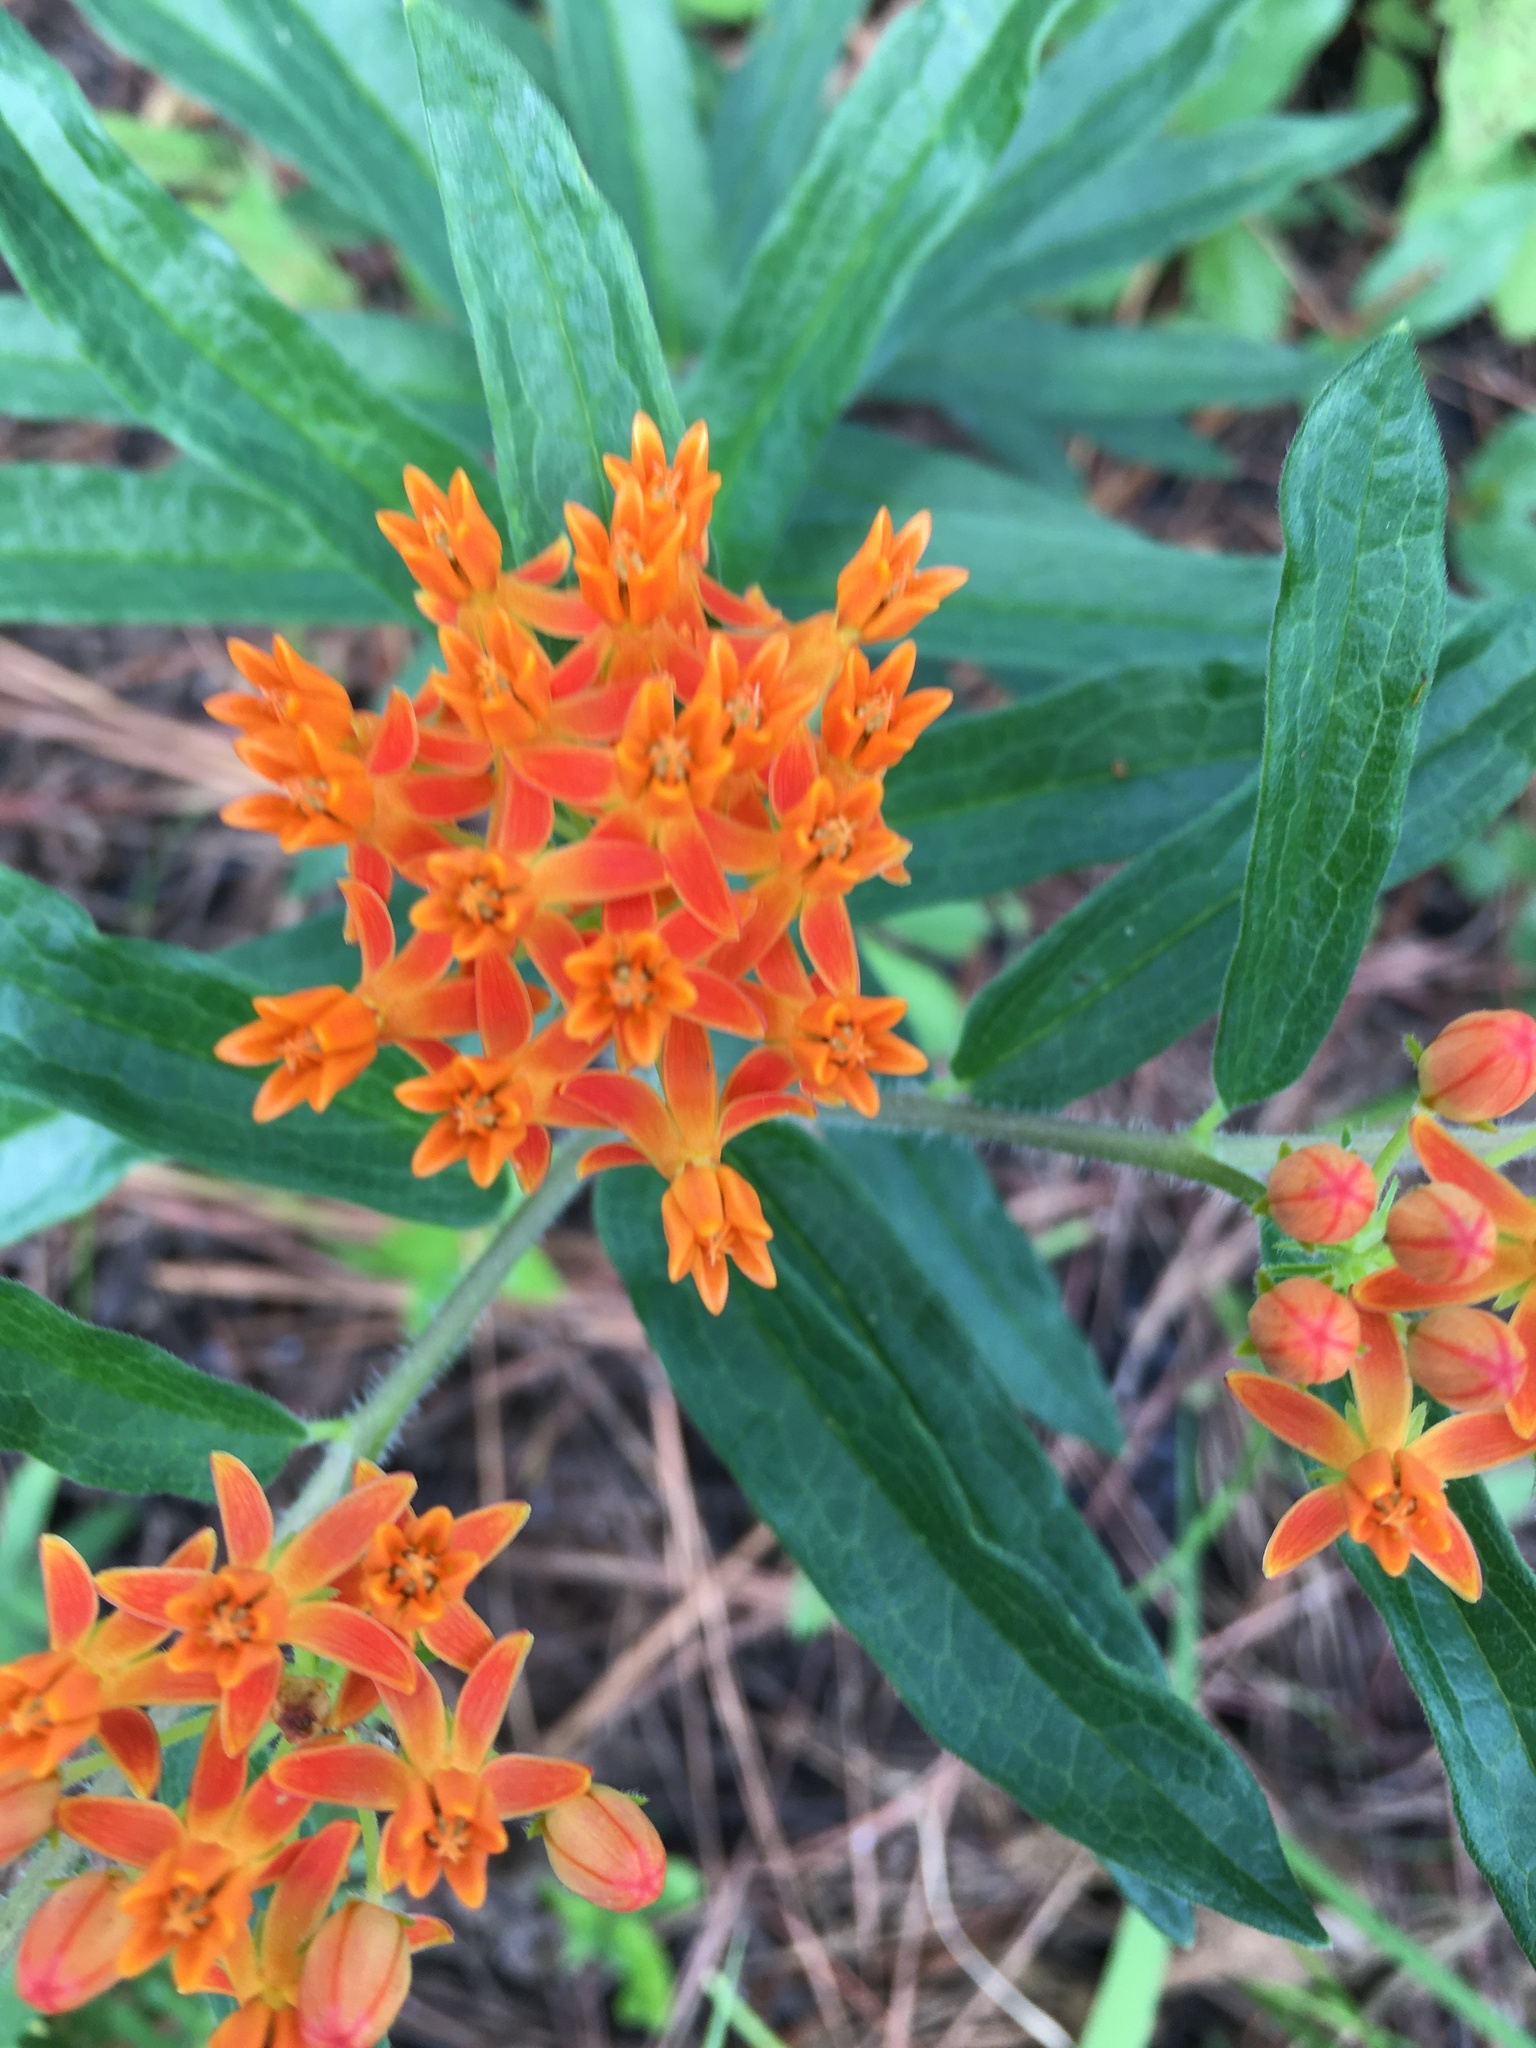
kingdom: Plantae
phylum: Tracheophyta
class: Magnoliopsida
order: Gentianales
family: Apocynaceae
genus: Asclepias
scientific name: Asclepias tuberosa
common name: Butterfly milkweed
